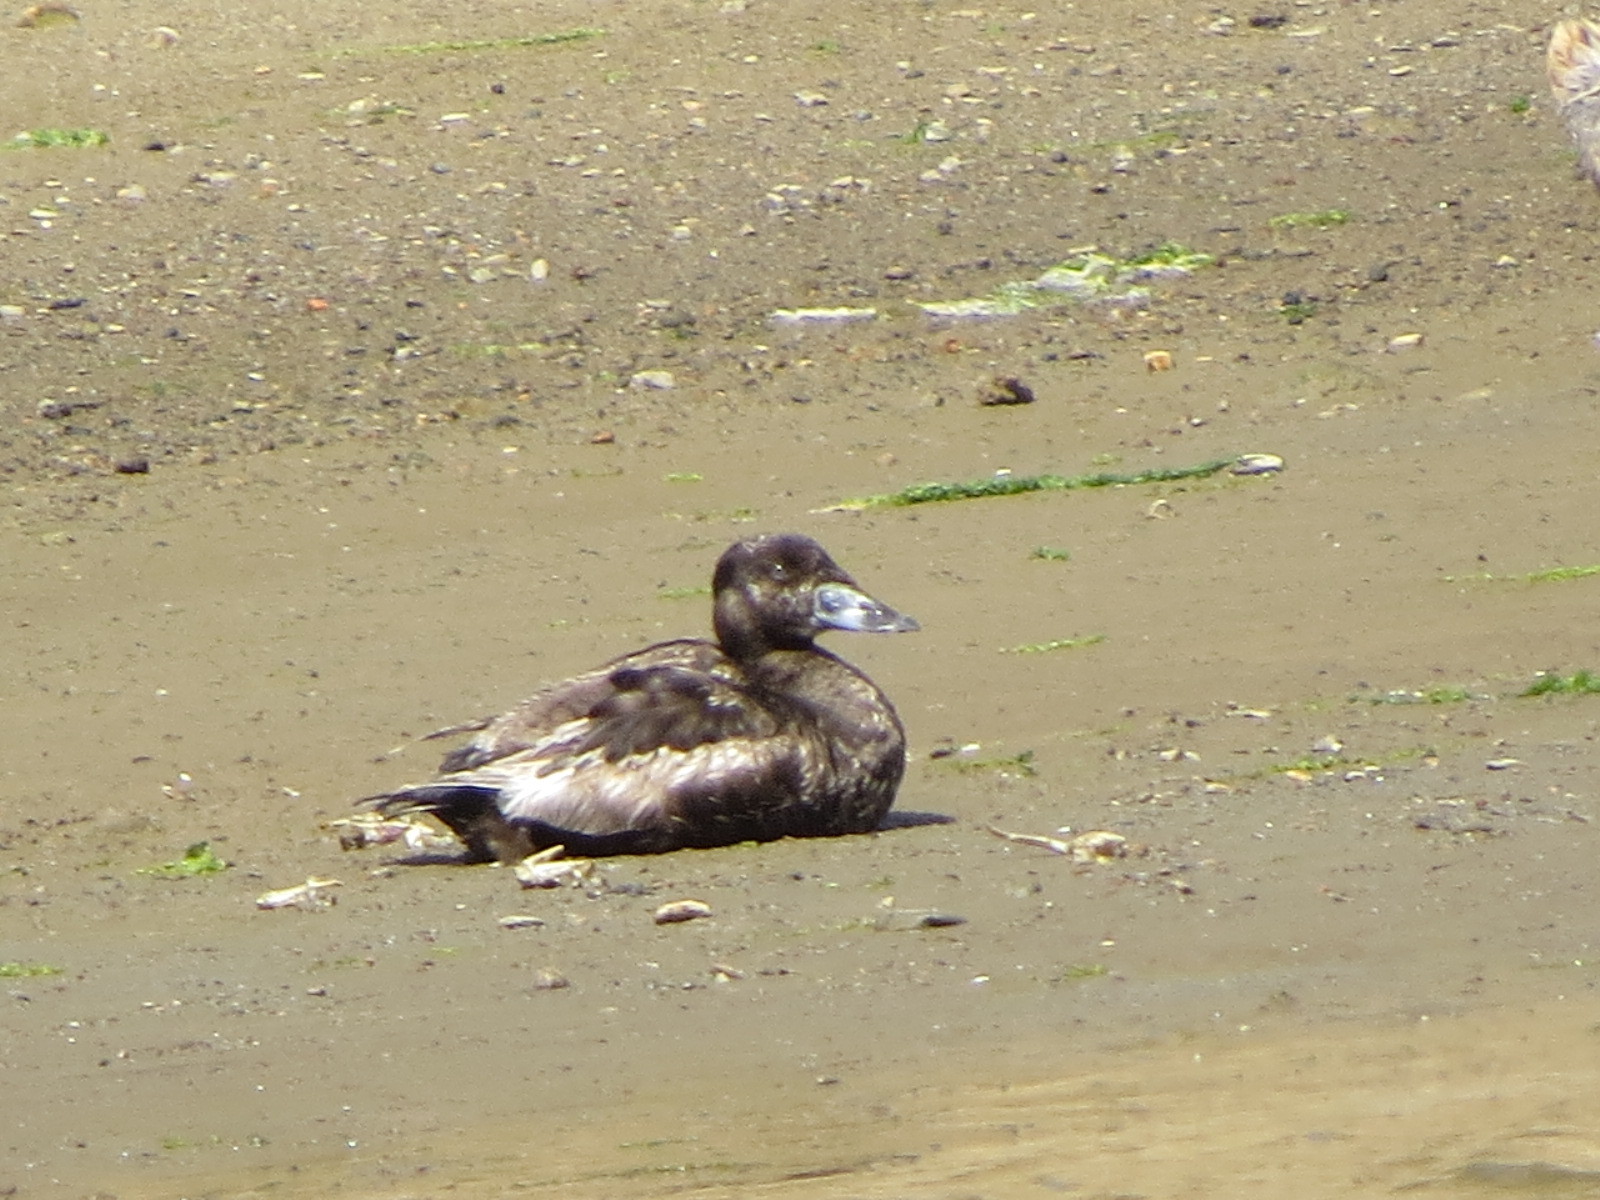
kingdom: Animalia
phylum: Chordata
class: Aves
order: Anseriformes
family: Anatidae
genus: Melanitta
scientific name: Melanitta perspicillata
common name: Surf scoter
